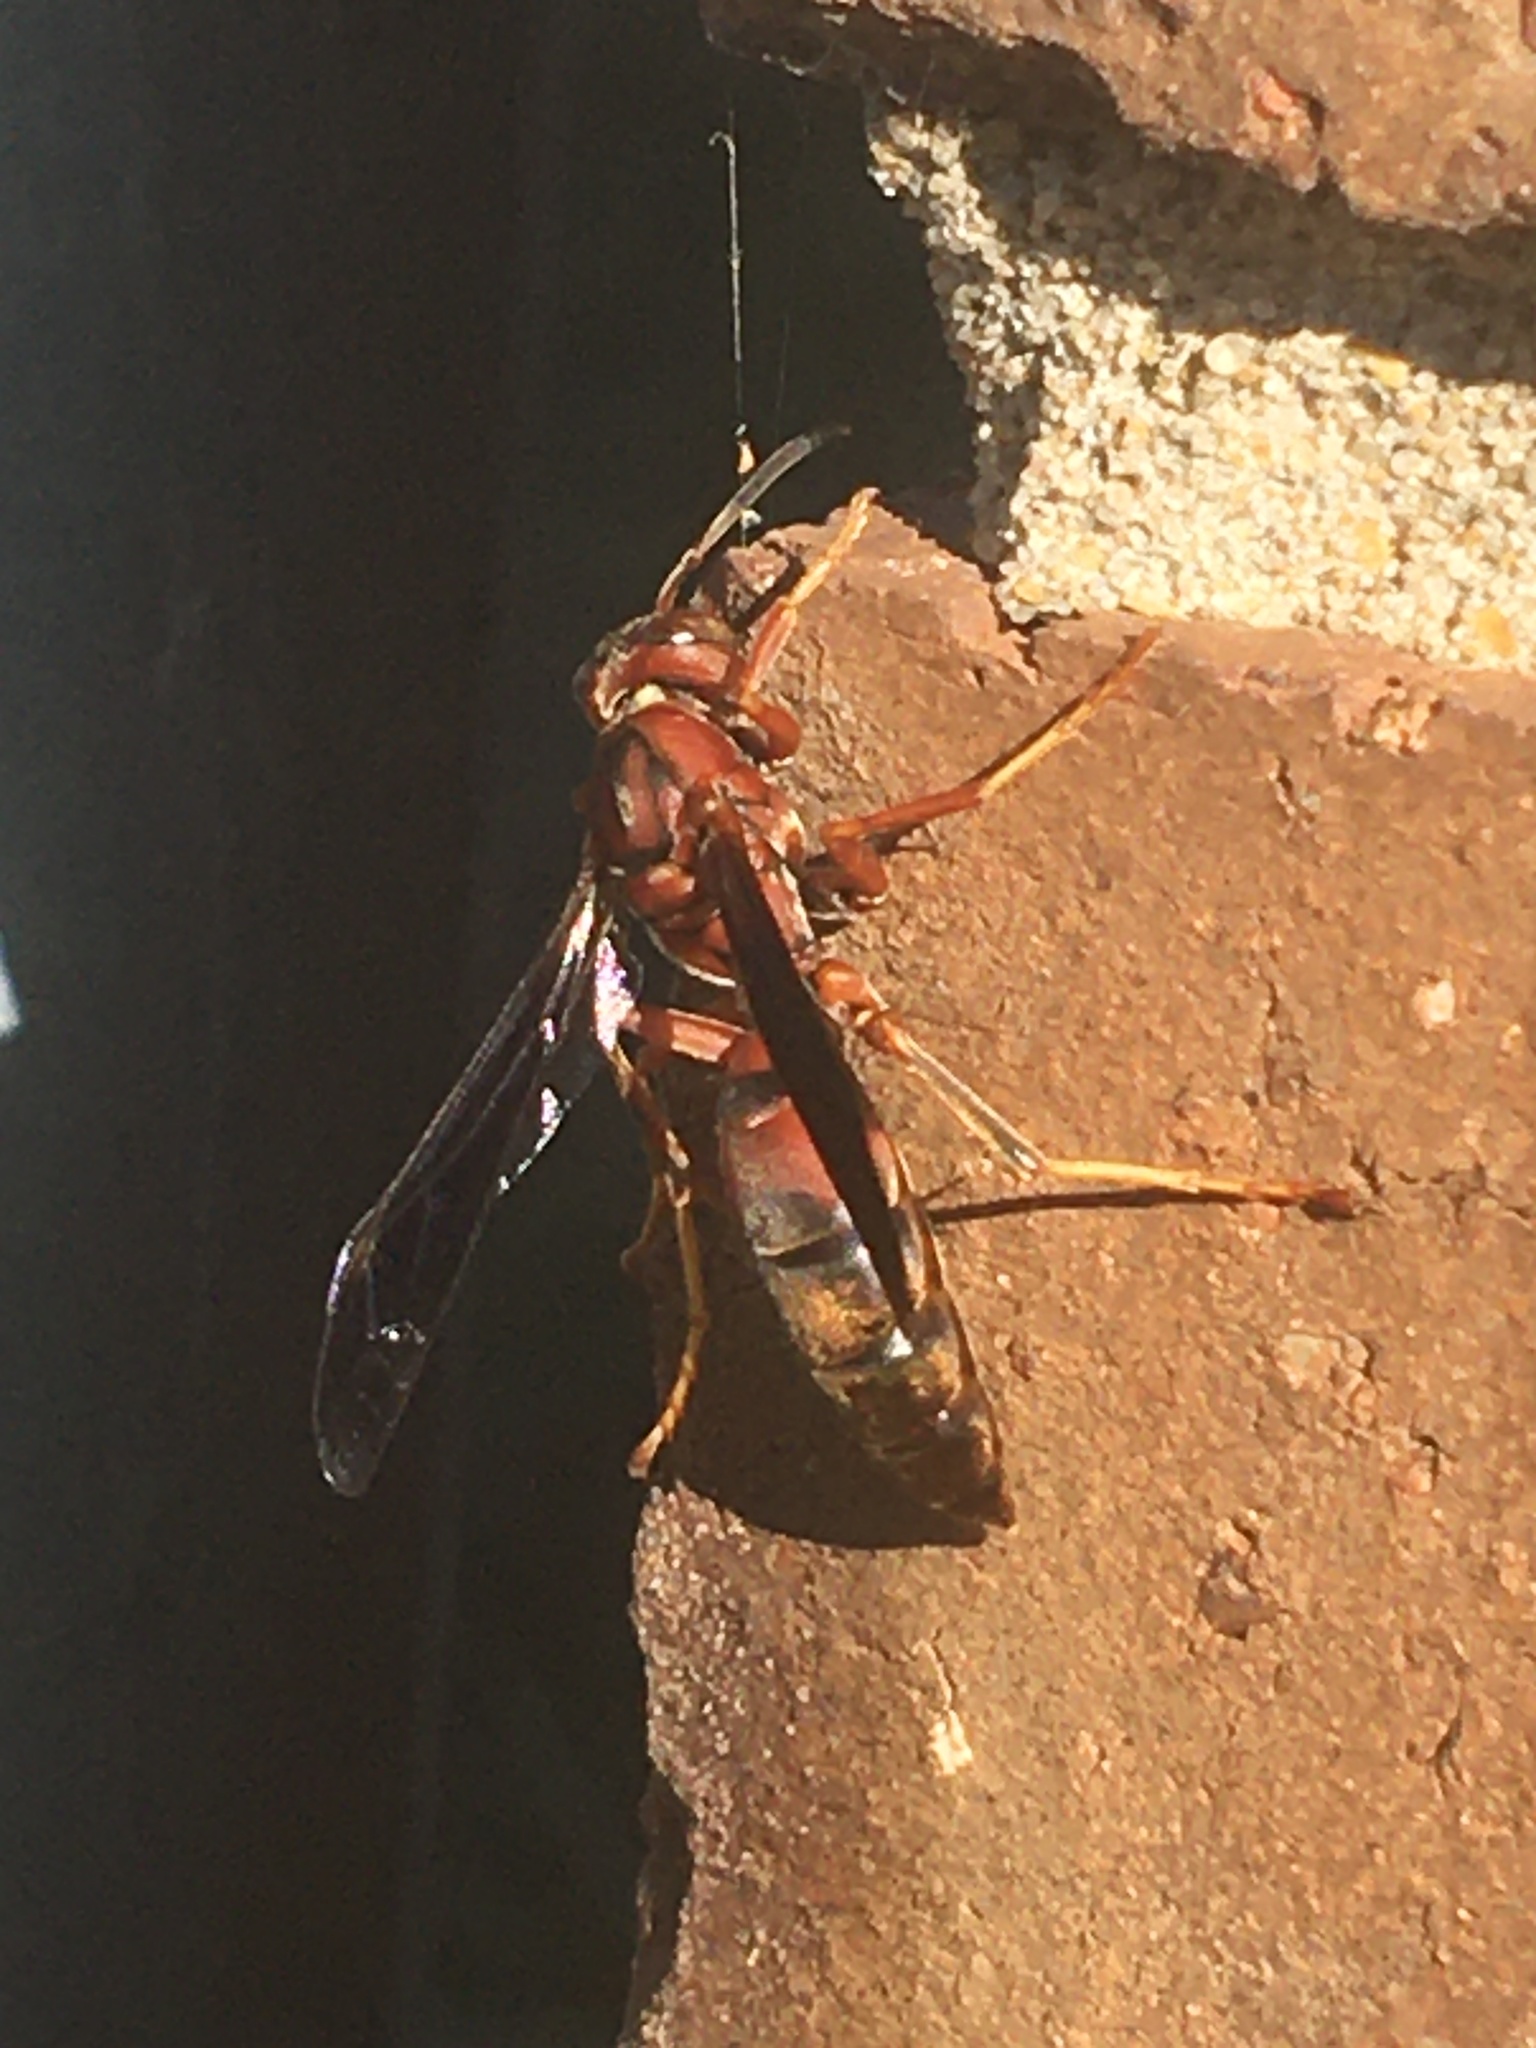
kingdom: Animalia
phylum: Arthropoda
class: Insecta
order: Hymenoptera
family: Eumenidae
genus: Polistes
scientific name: Polistes metricus
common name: Metric paper wasp
